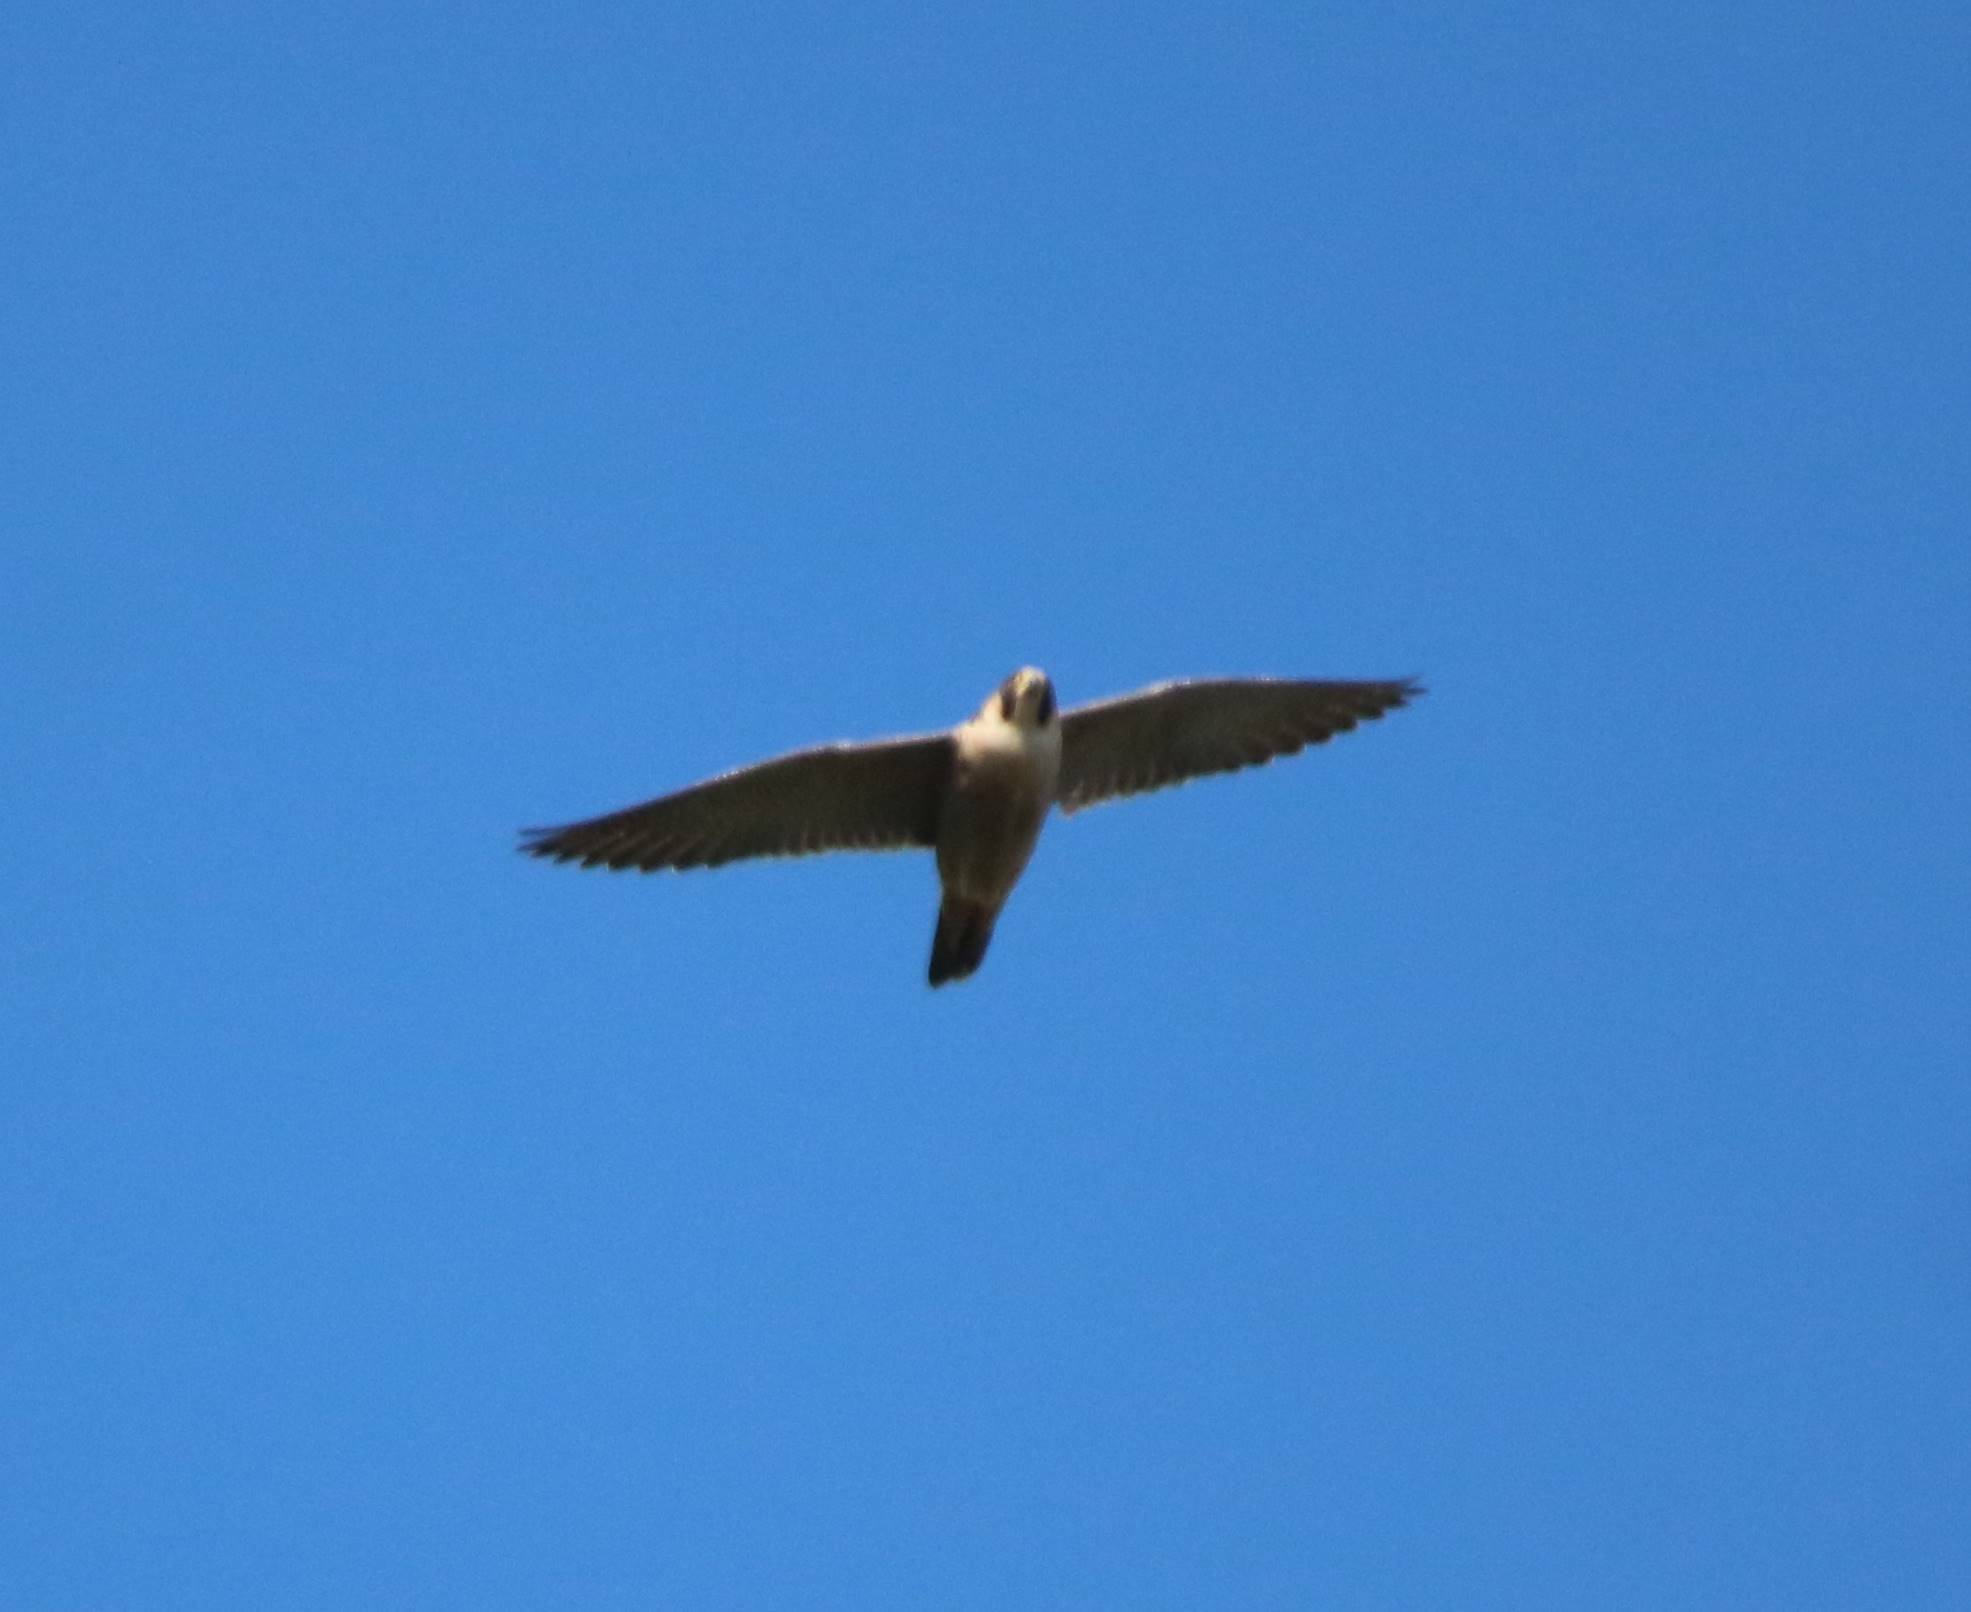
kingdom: Animalia
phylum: Chordata
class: Aves
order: Falconiformes
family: Falconidae
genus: Falco
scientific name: Falco peregrinus
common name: Peregrine falcon
